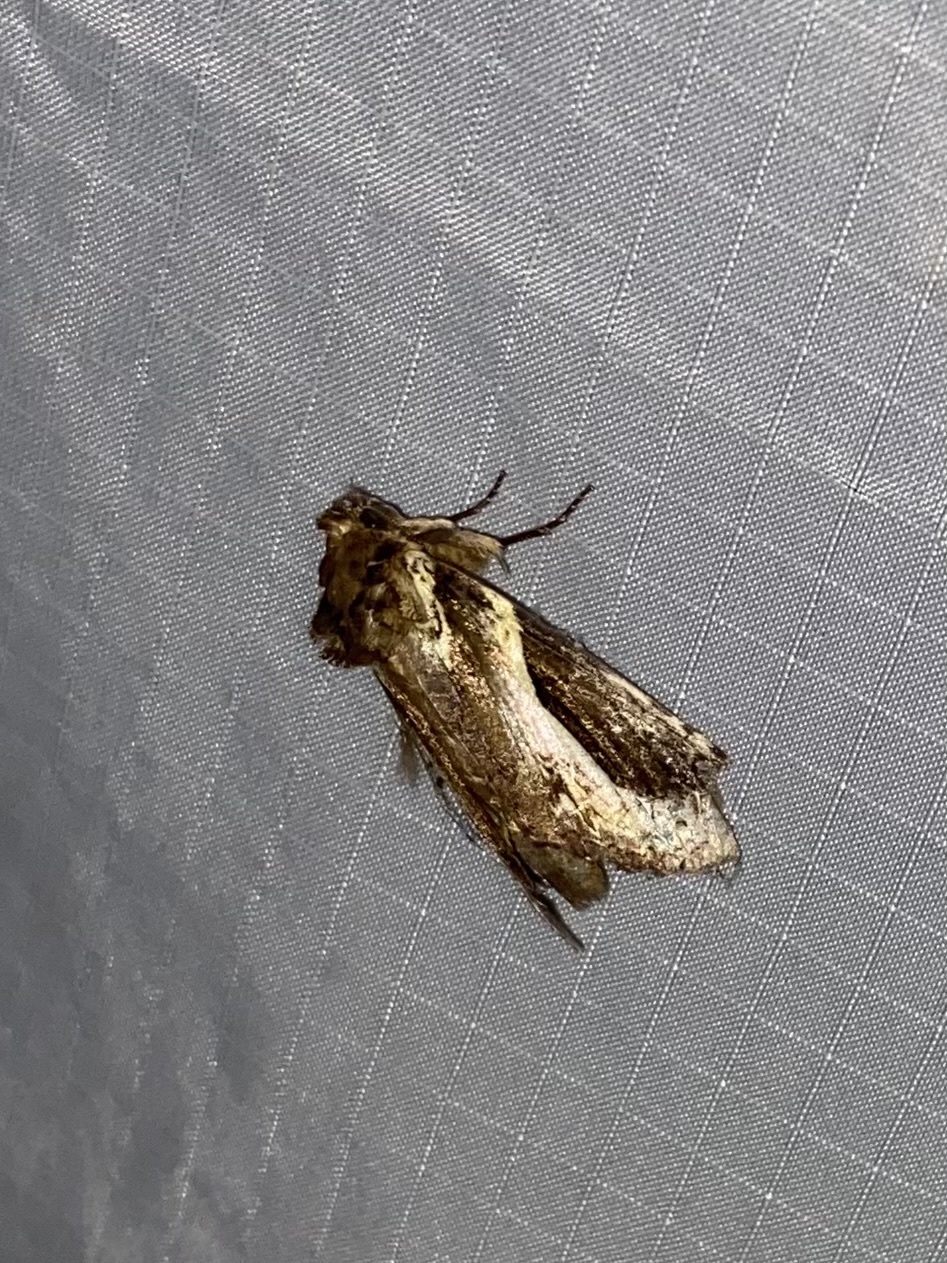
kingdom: Animalia
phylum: Arthropoda
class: Insecta
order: Lepidoptera
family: Notodontidae
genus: Rhuda
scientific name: Rhuda focula
